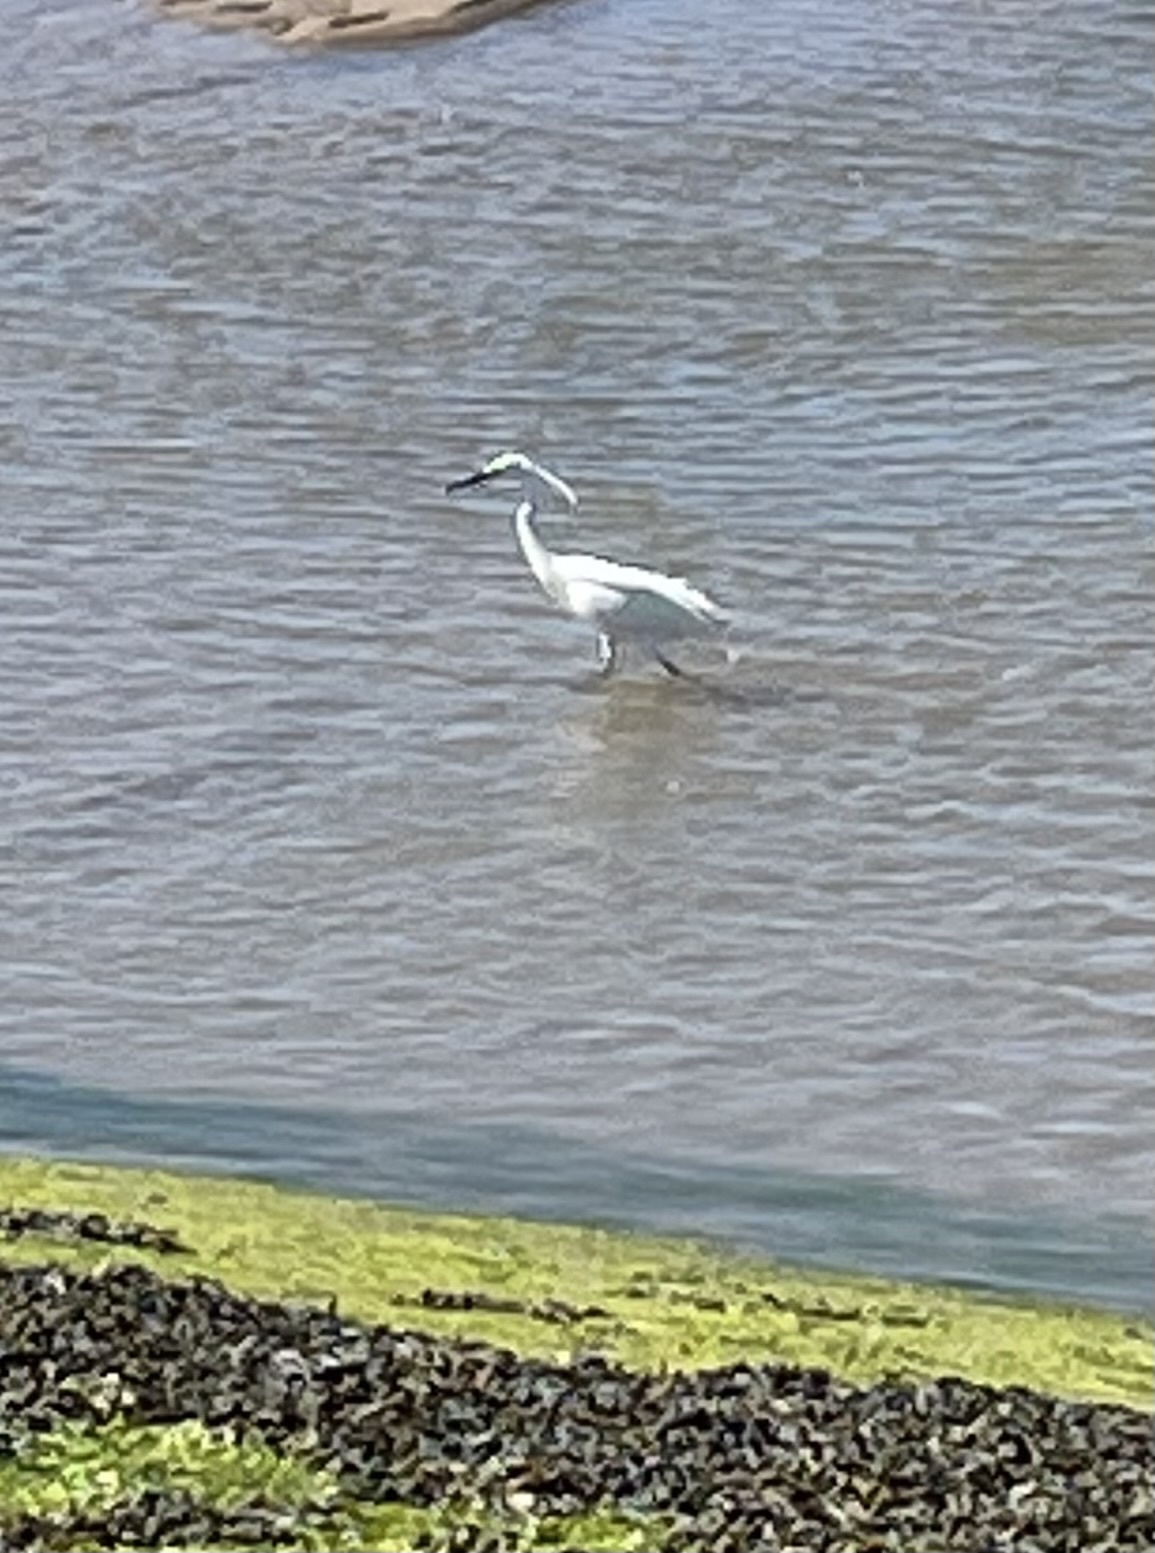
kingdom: Animalia
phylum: Chordata
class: Aves
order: Pelecaniformes
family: Ardeidae
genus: Egretta
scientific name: Egretta garzetta
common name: Little egret
